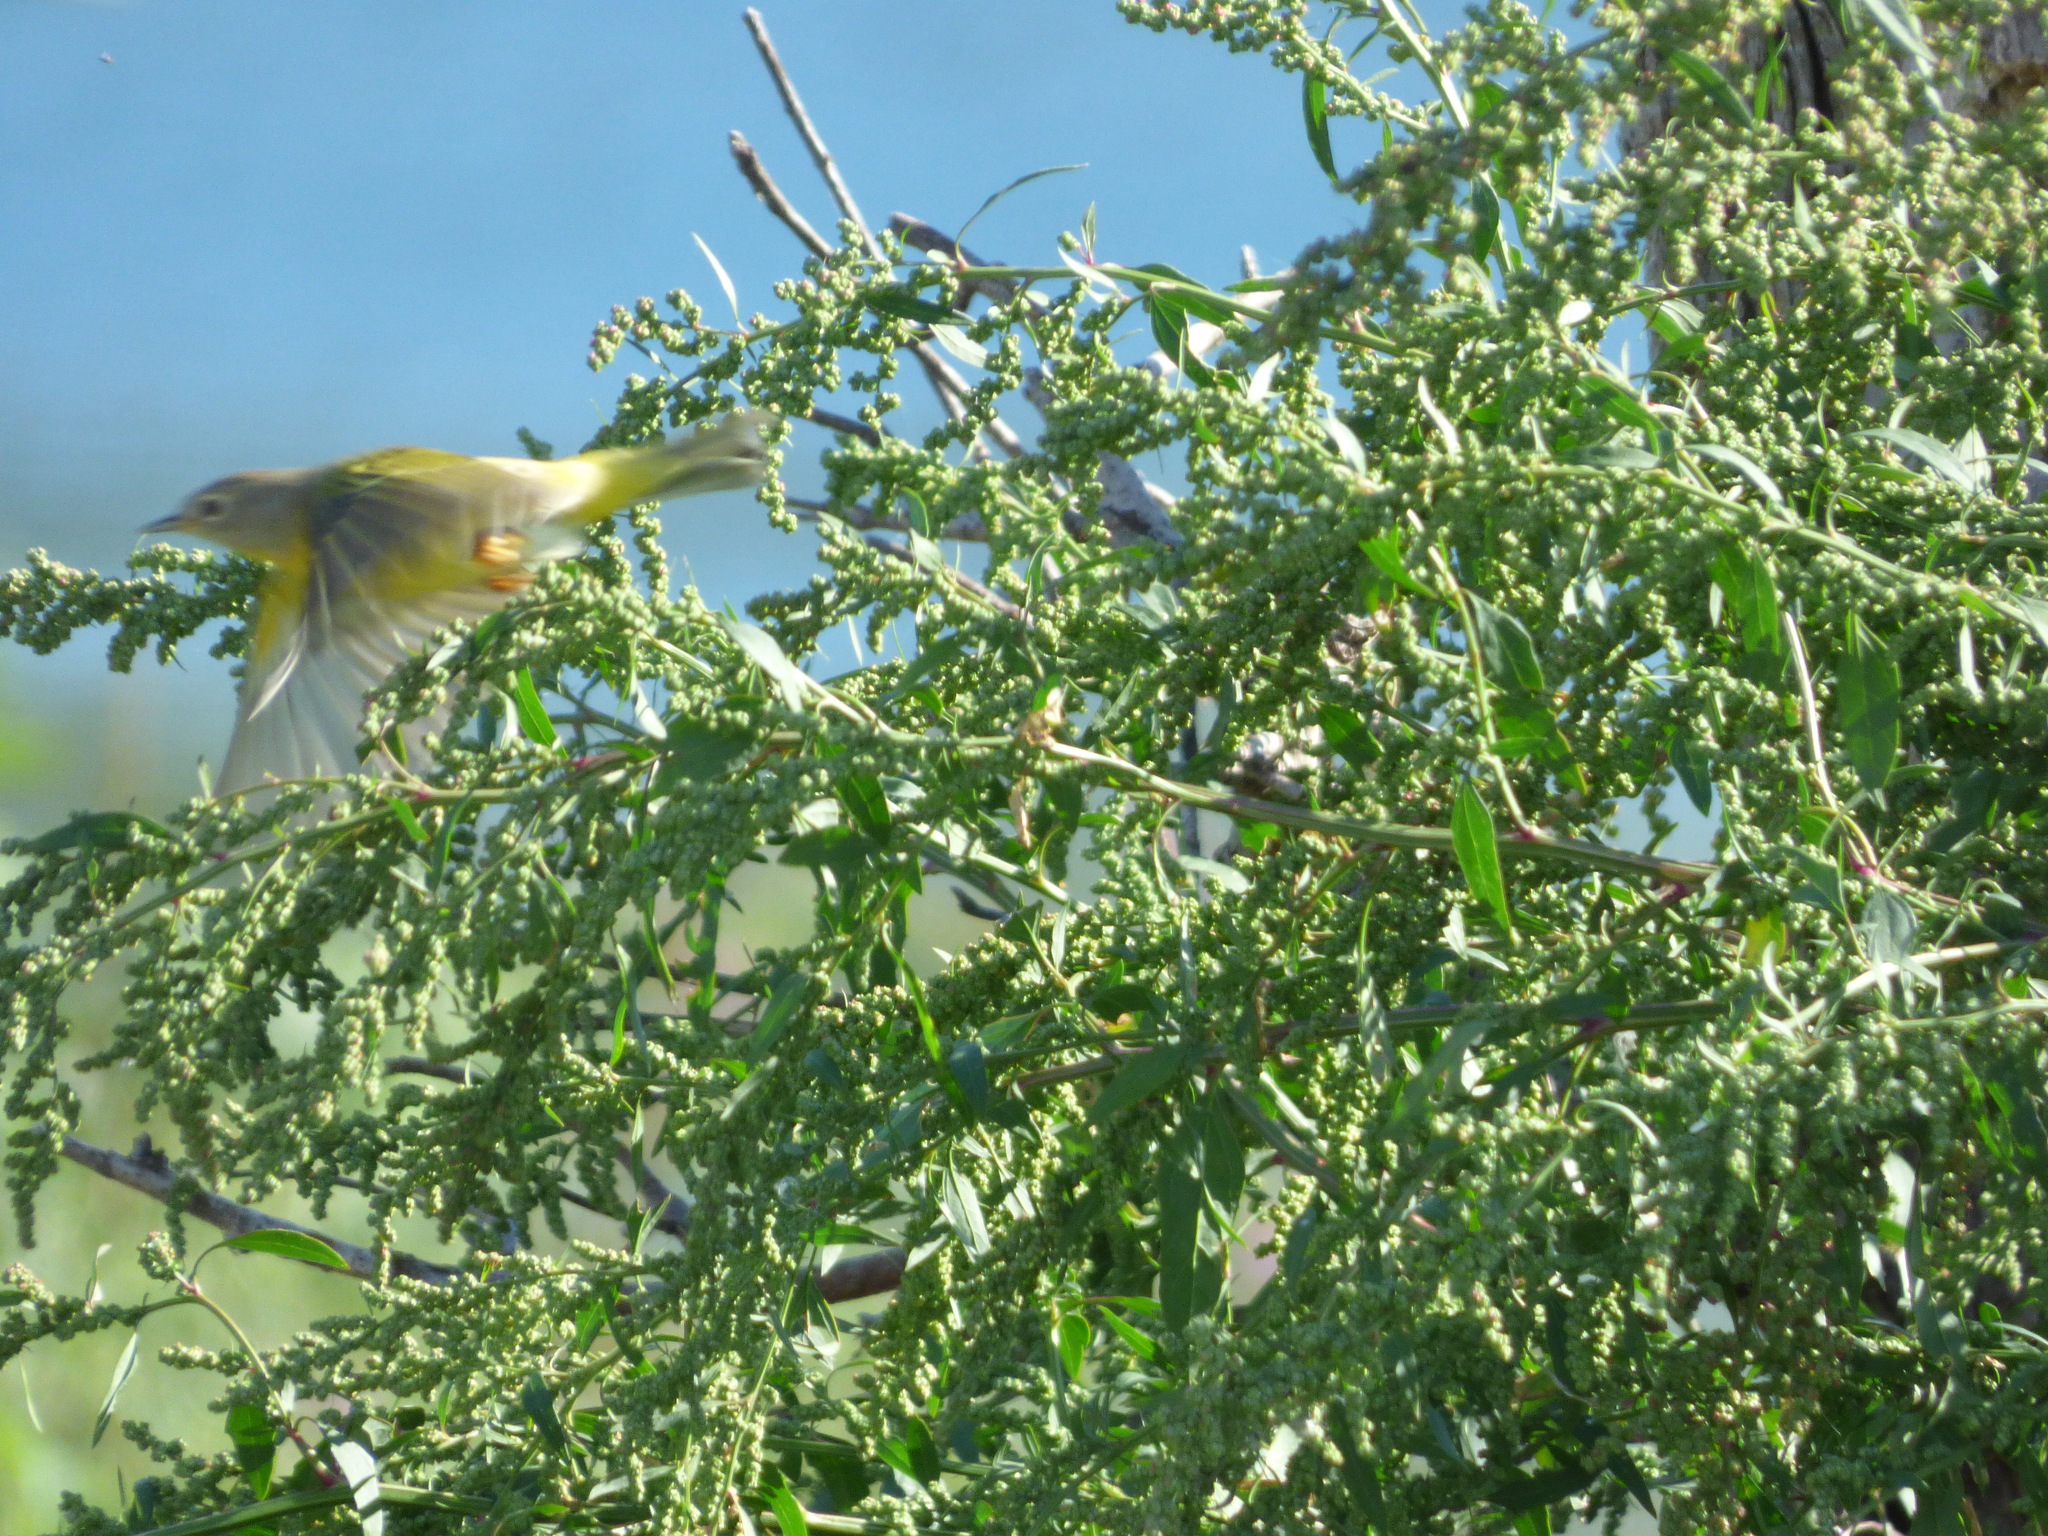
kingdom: Animalia
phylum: Chordata
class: Aves
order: Passeriformes
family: Parulidae
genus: Leiothlypis
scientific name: Leiothlypis ruficapilla
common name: Nashville warbler
